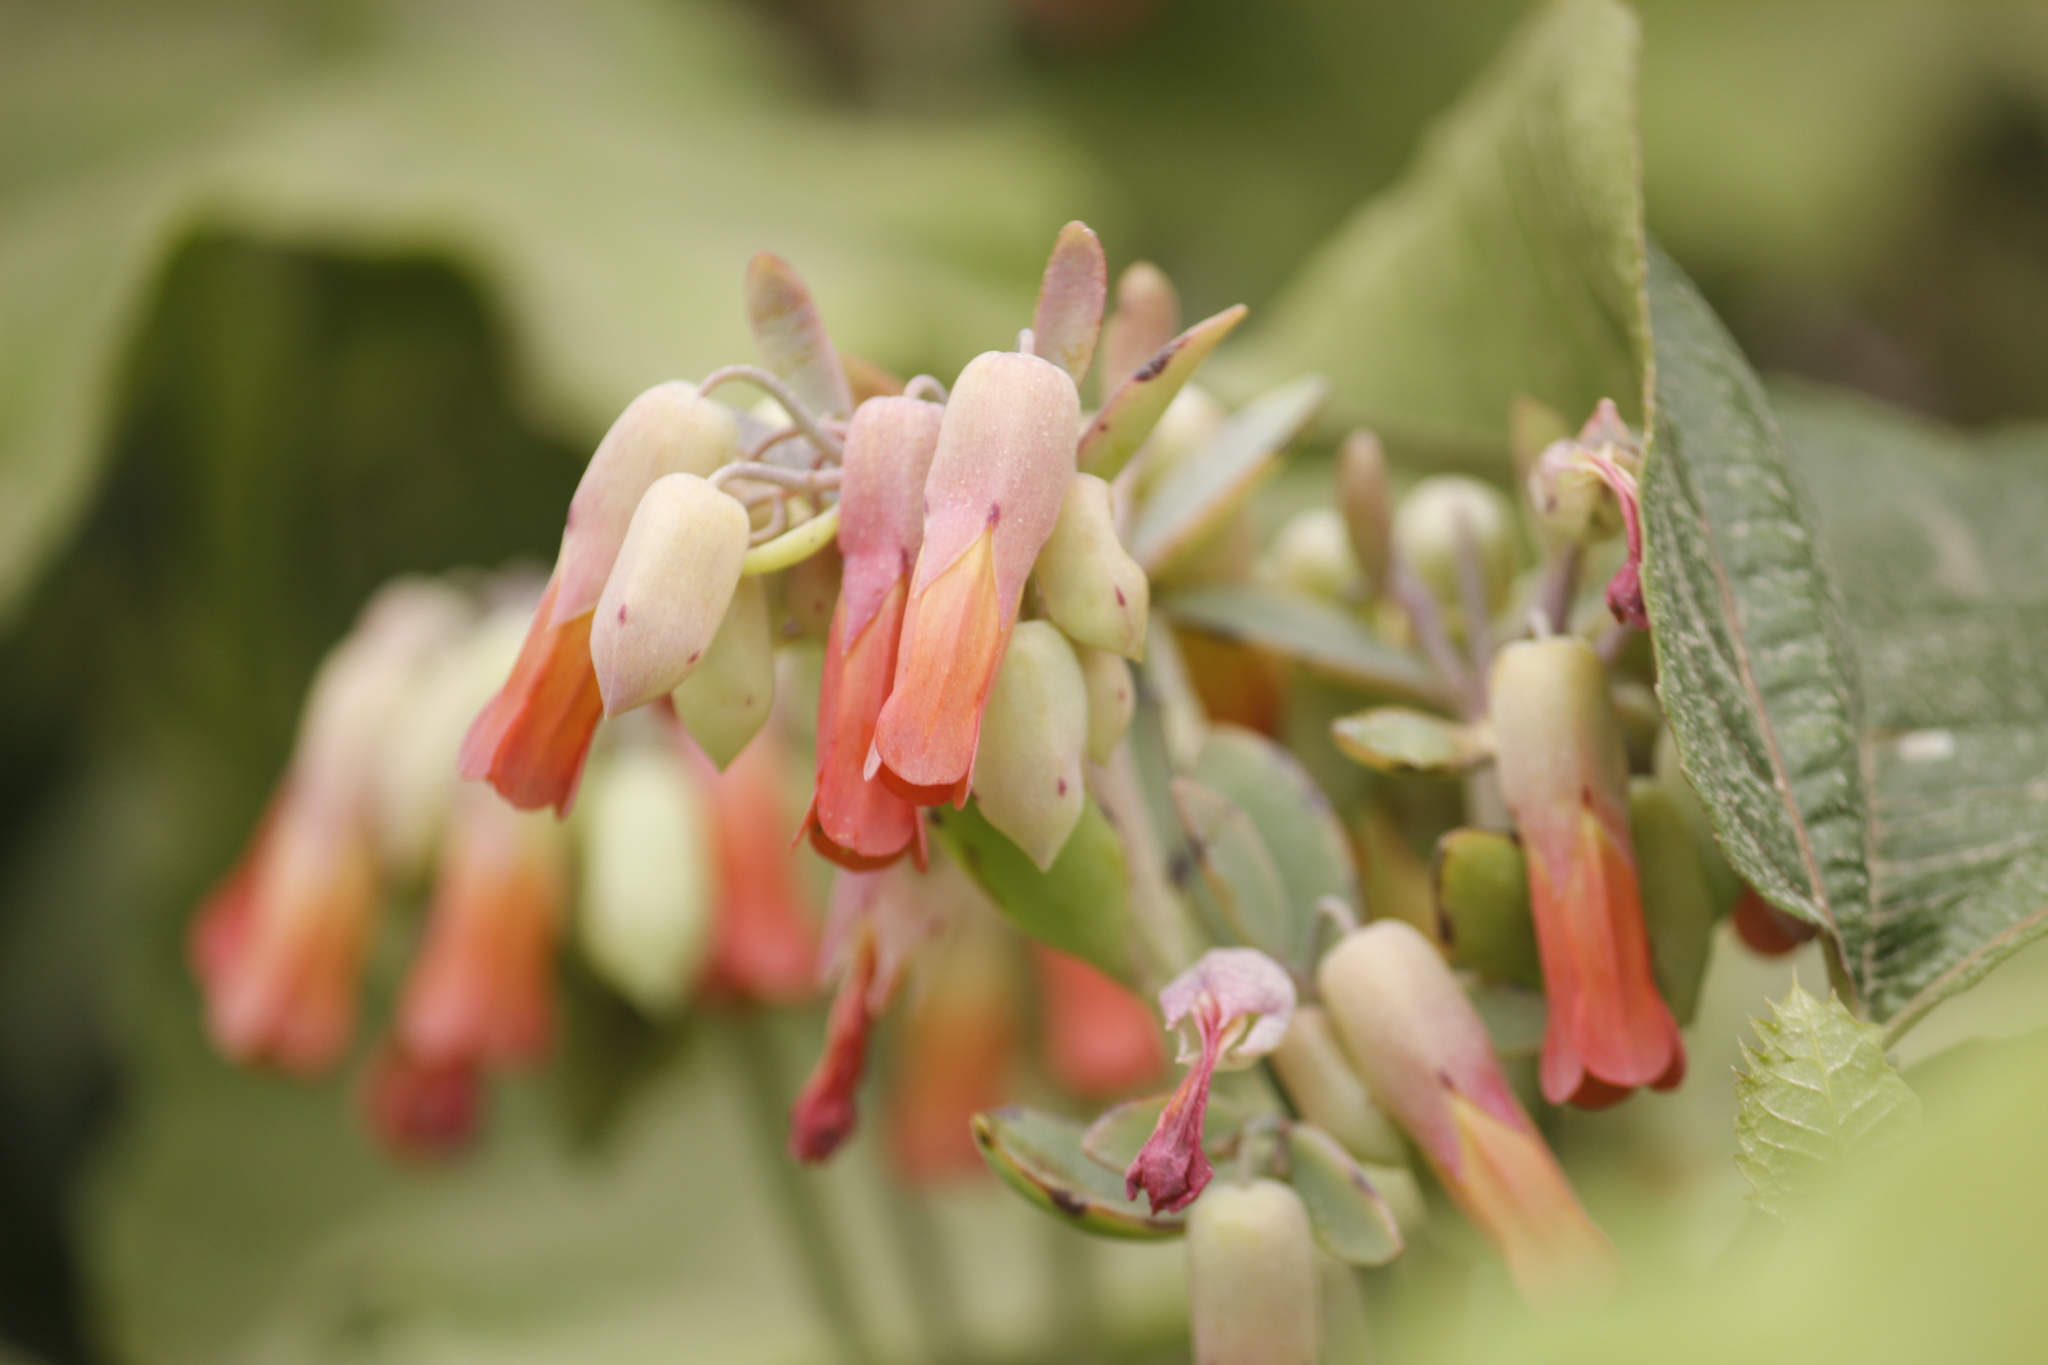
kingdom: Plantae
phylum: Tracheophyta
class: Magnoliopsida
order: Saxifragales
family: Crassulaceae
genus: Kalanchoe
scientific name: Kalanchoe laxiflora
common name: Milky widow's thrill
